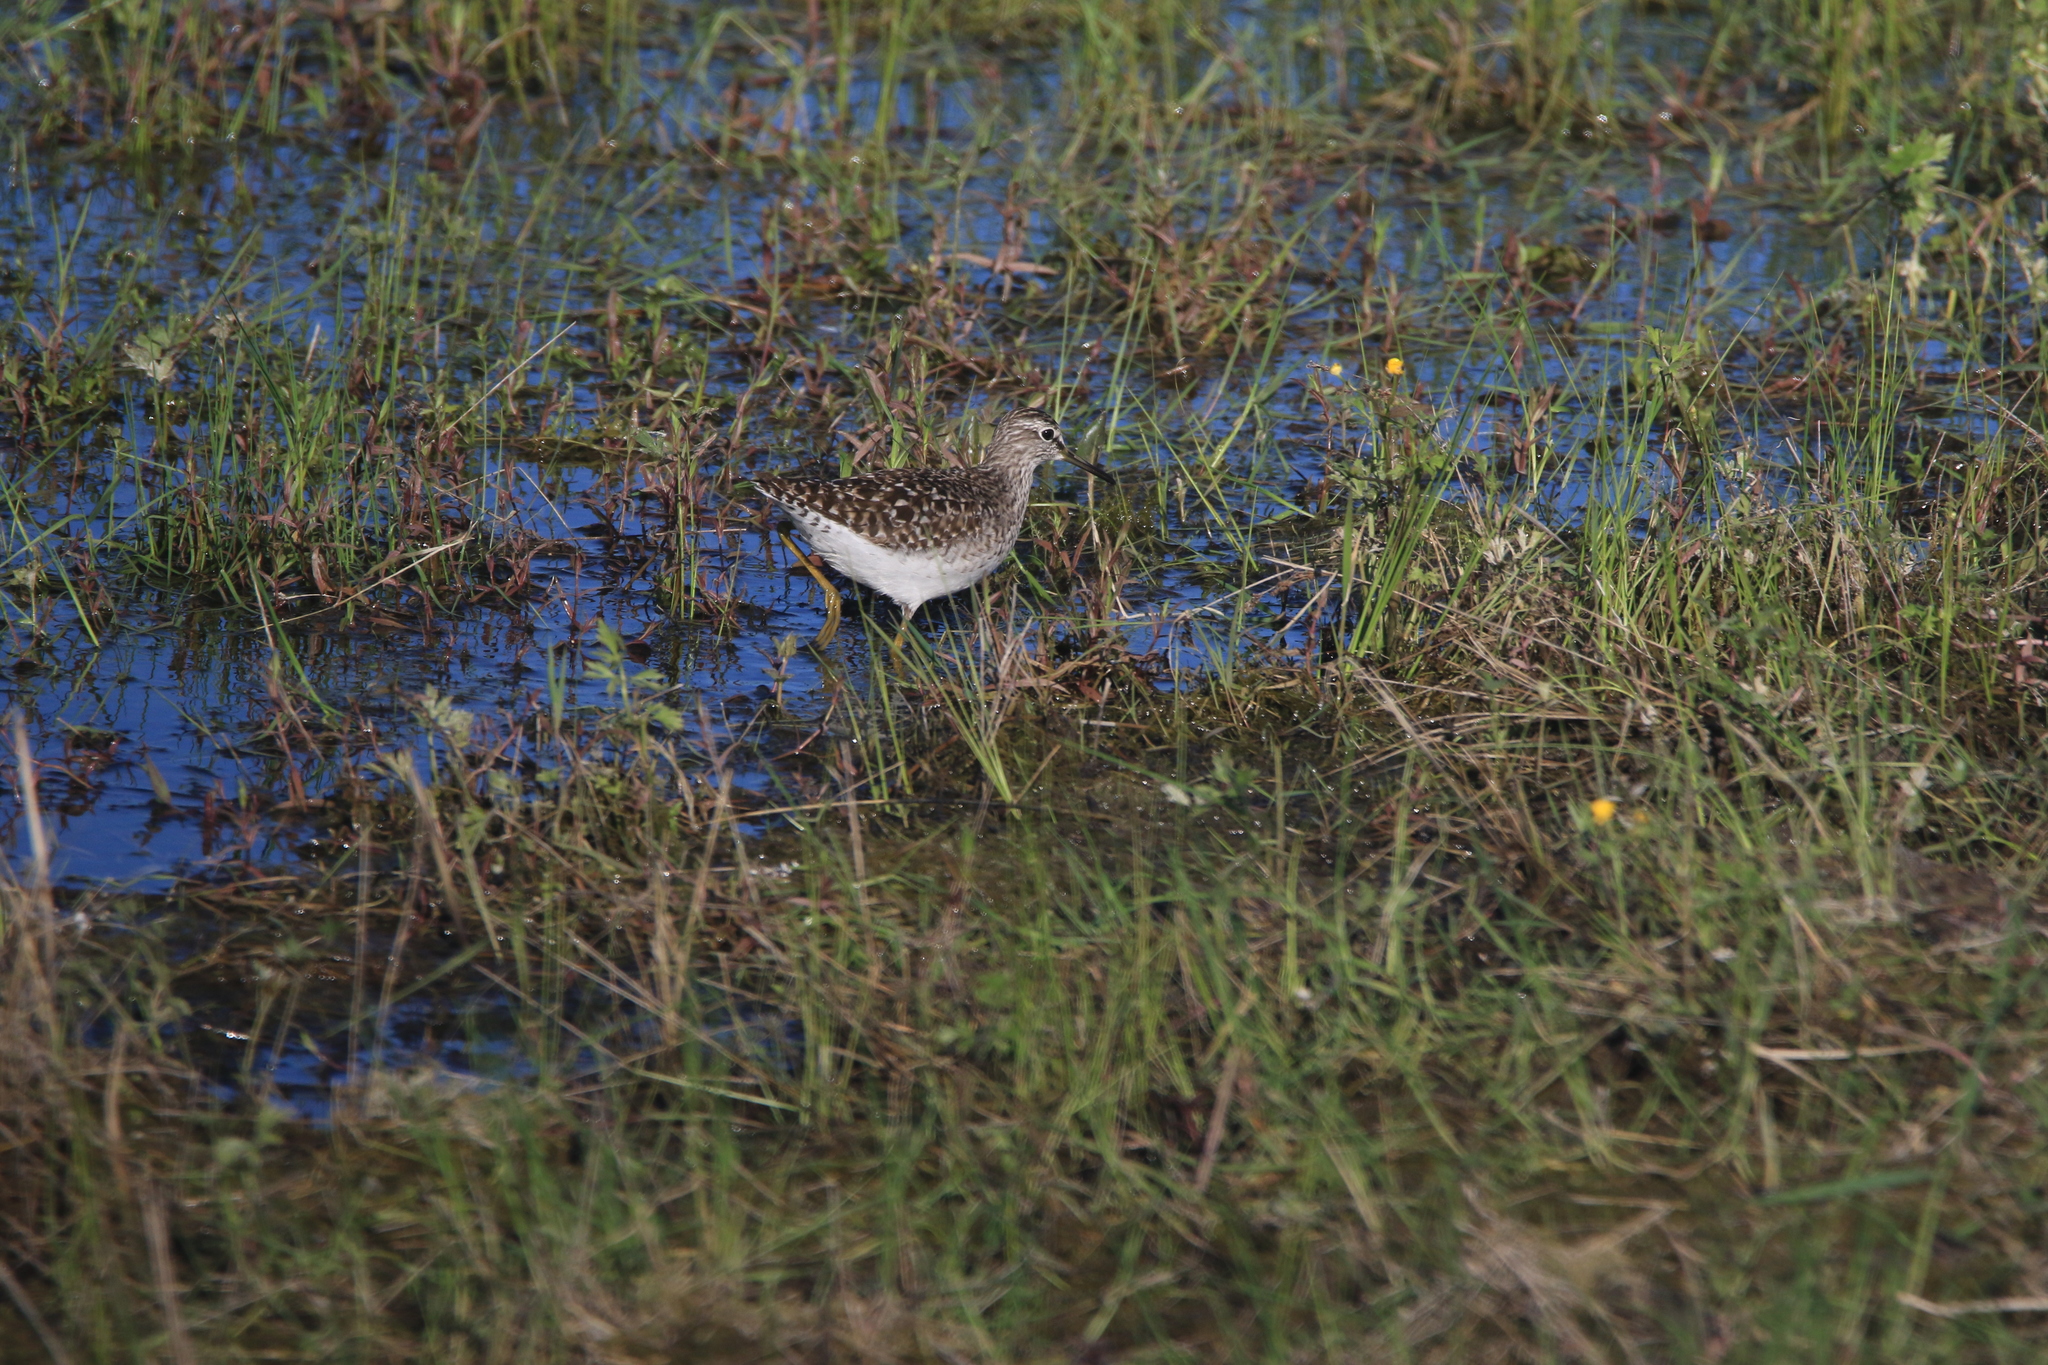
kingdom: Animalia
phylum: Chordata
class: Aves
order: Charadriiformes
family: Scolopacidae
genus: Tringa
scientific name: Tringa glareola
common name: Wood sandpiper
